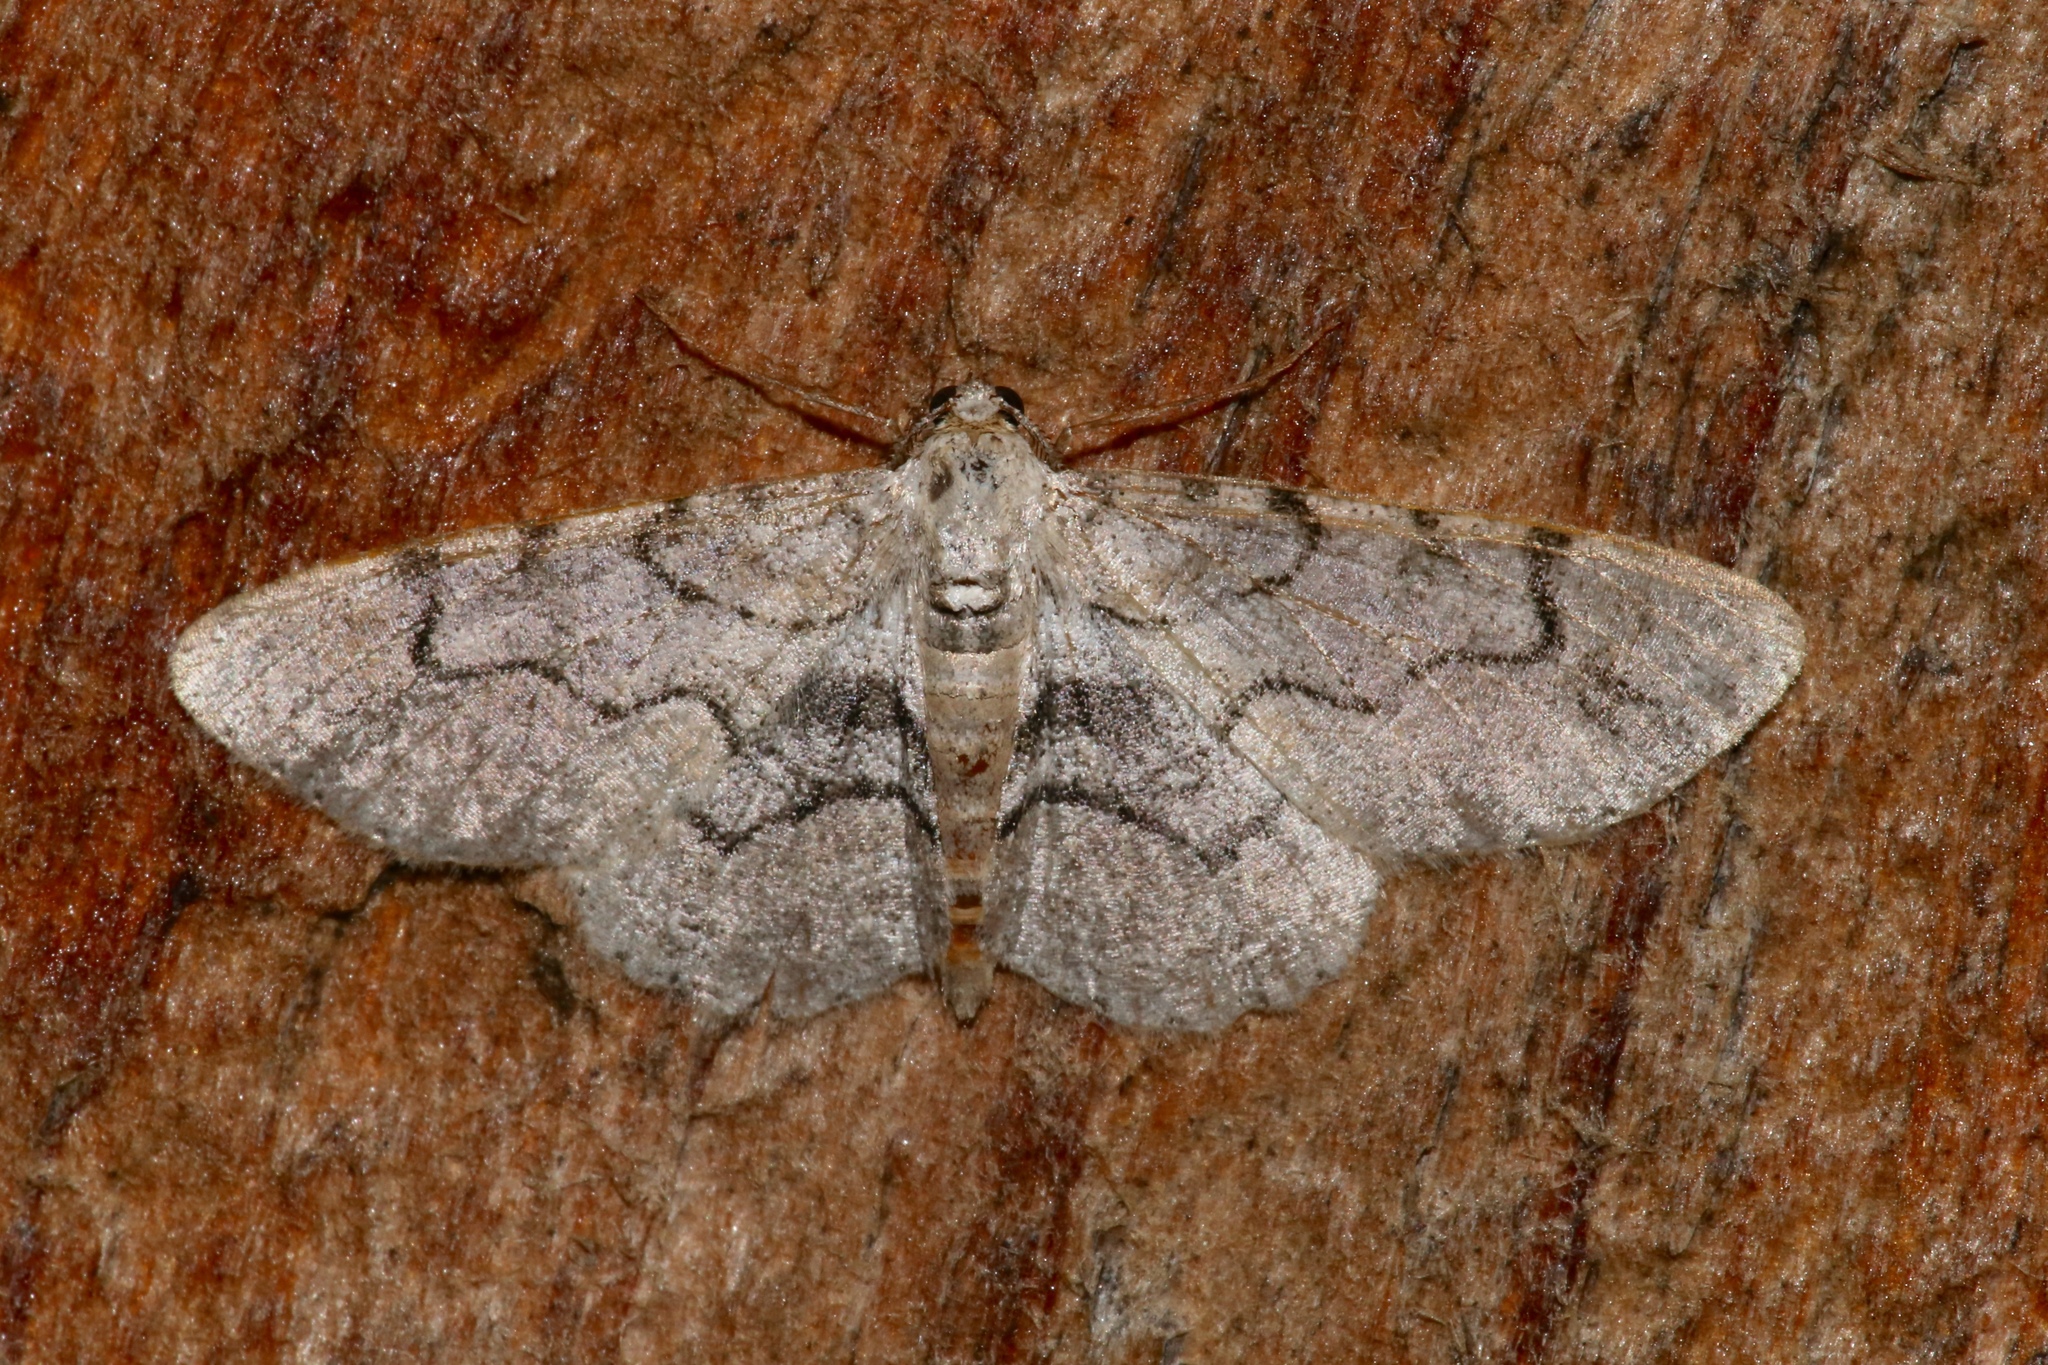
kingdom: Animalia
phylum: Arthropoda
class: Insecta
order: Lepidoptera
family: Geometridae
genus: Iridopsis
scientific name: Iridopsis larvaria
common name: Bent-line gray
